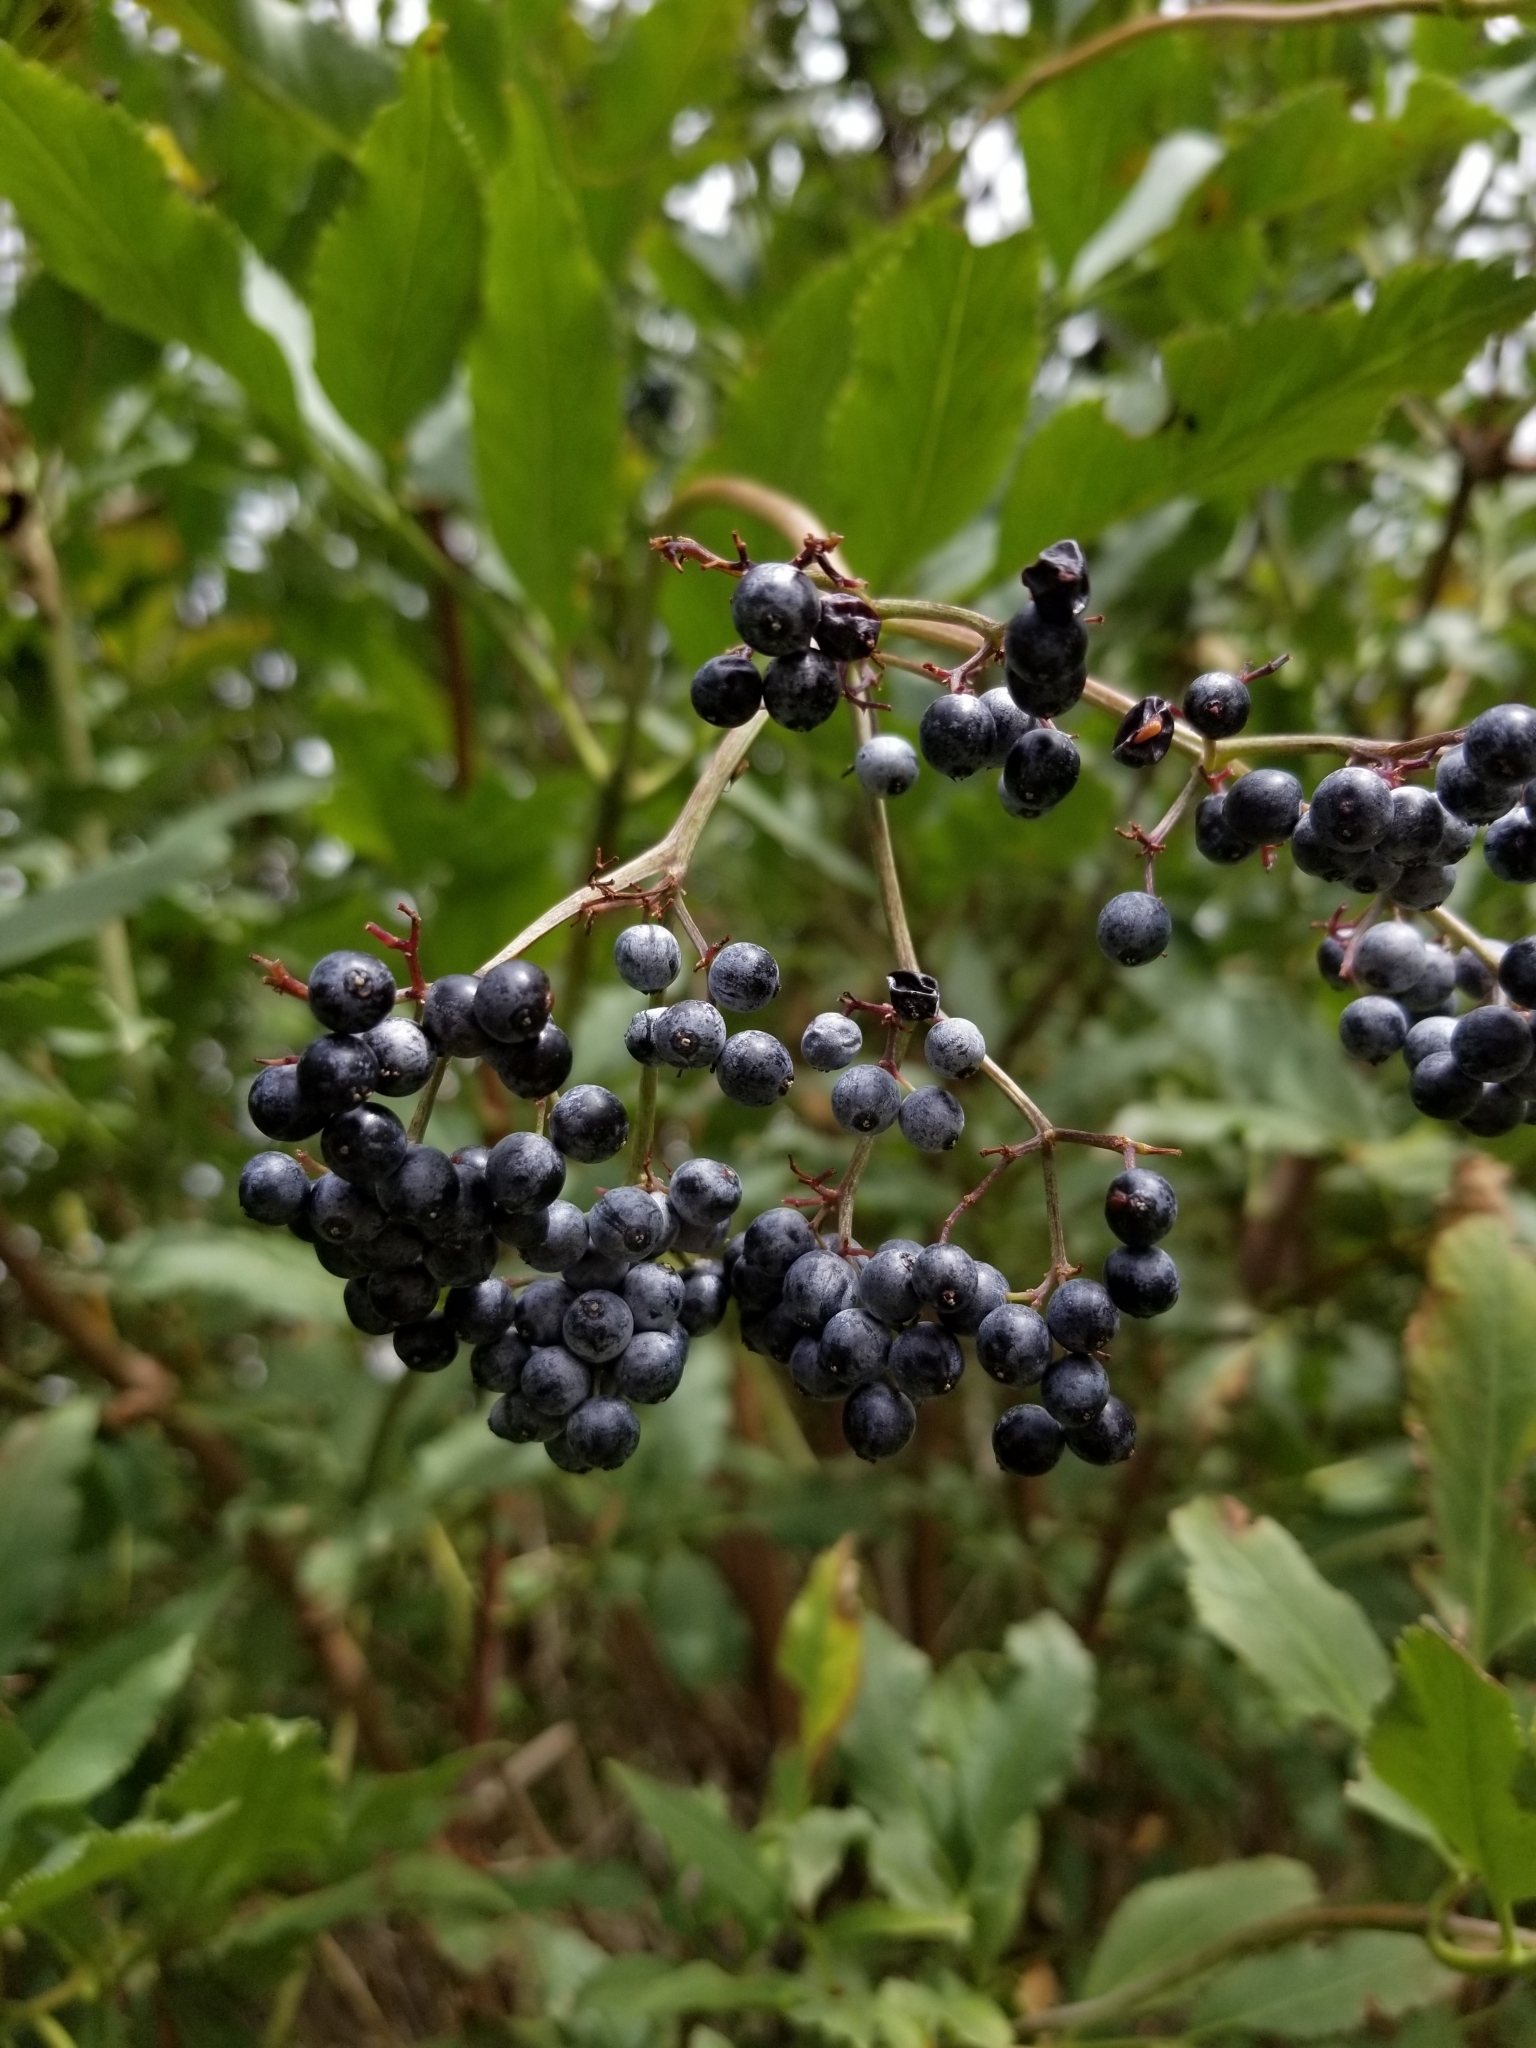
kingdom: Plantae
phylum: Tracheophyta
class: Magnoliopsida
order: Dipsacales
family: Viburnaceae
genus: Sambucus
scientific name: Sambucus cerulea
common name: Blue elder
